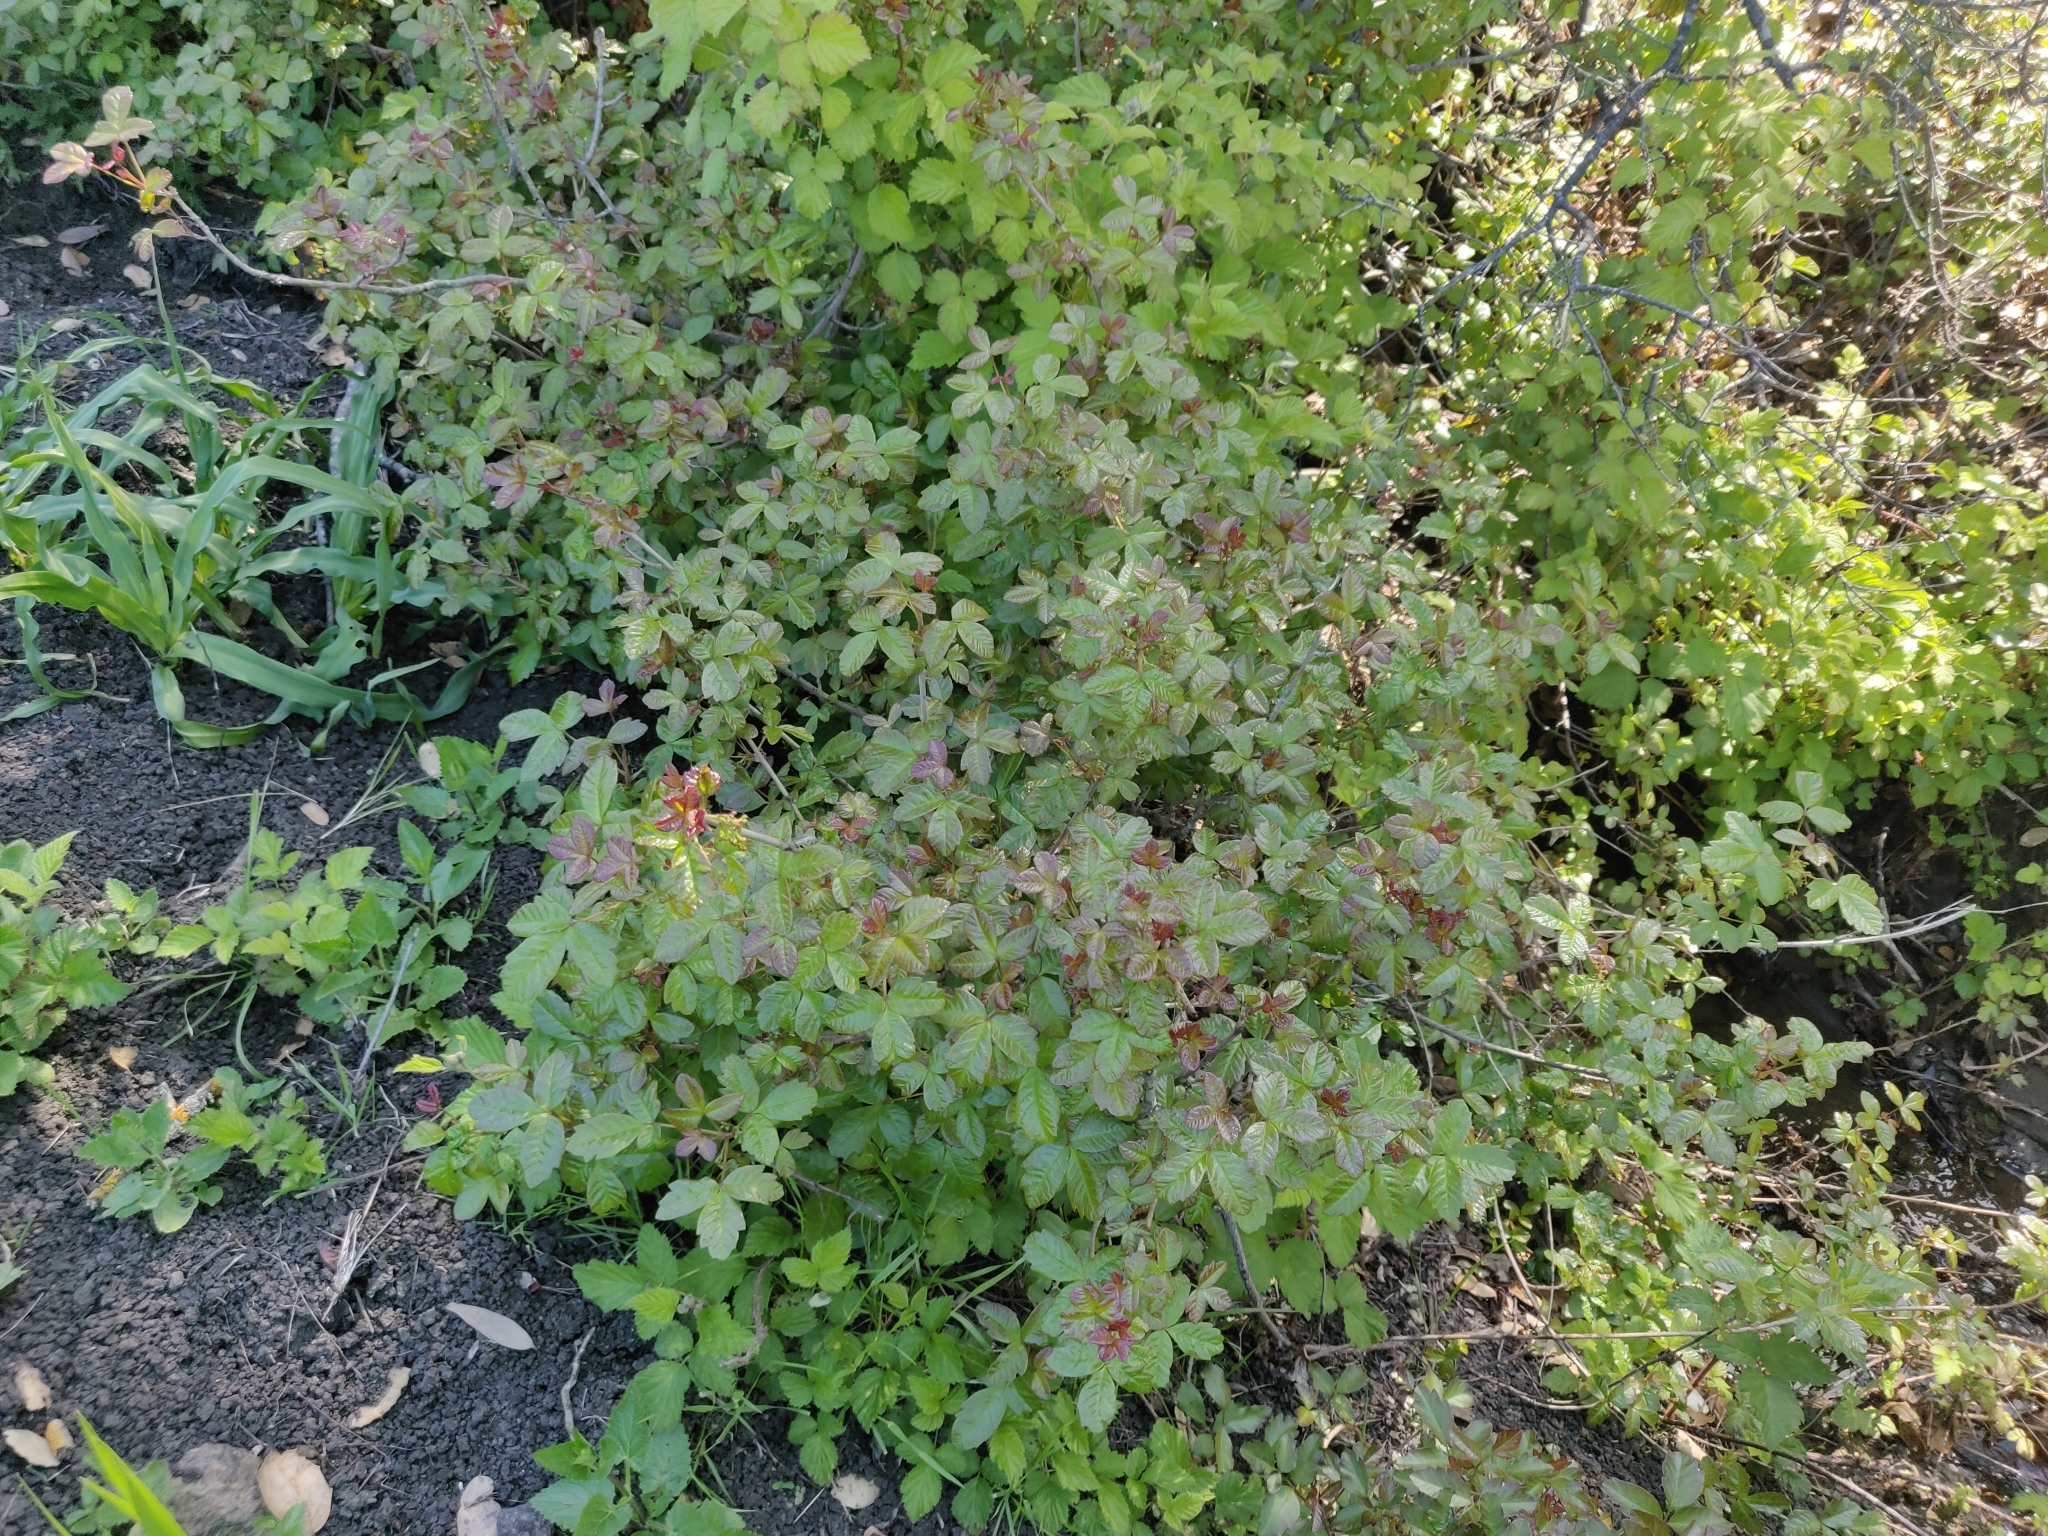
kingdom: Plantae
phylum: Tracheophyta
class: Magnoliopsida
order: Sapindales
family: Anacardiaceae
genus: Toxicodendron
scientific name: Toxicodendron diversilobum
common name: Pacific poison-oak
